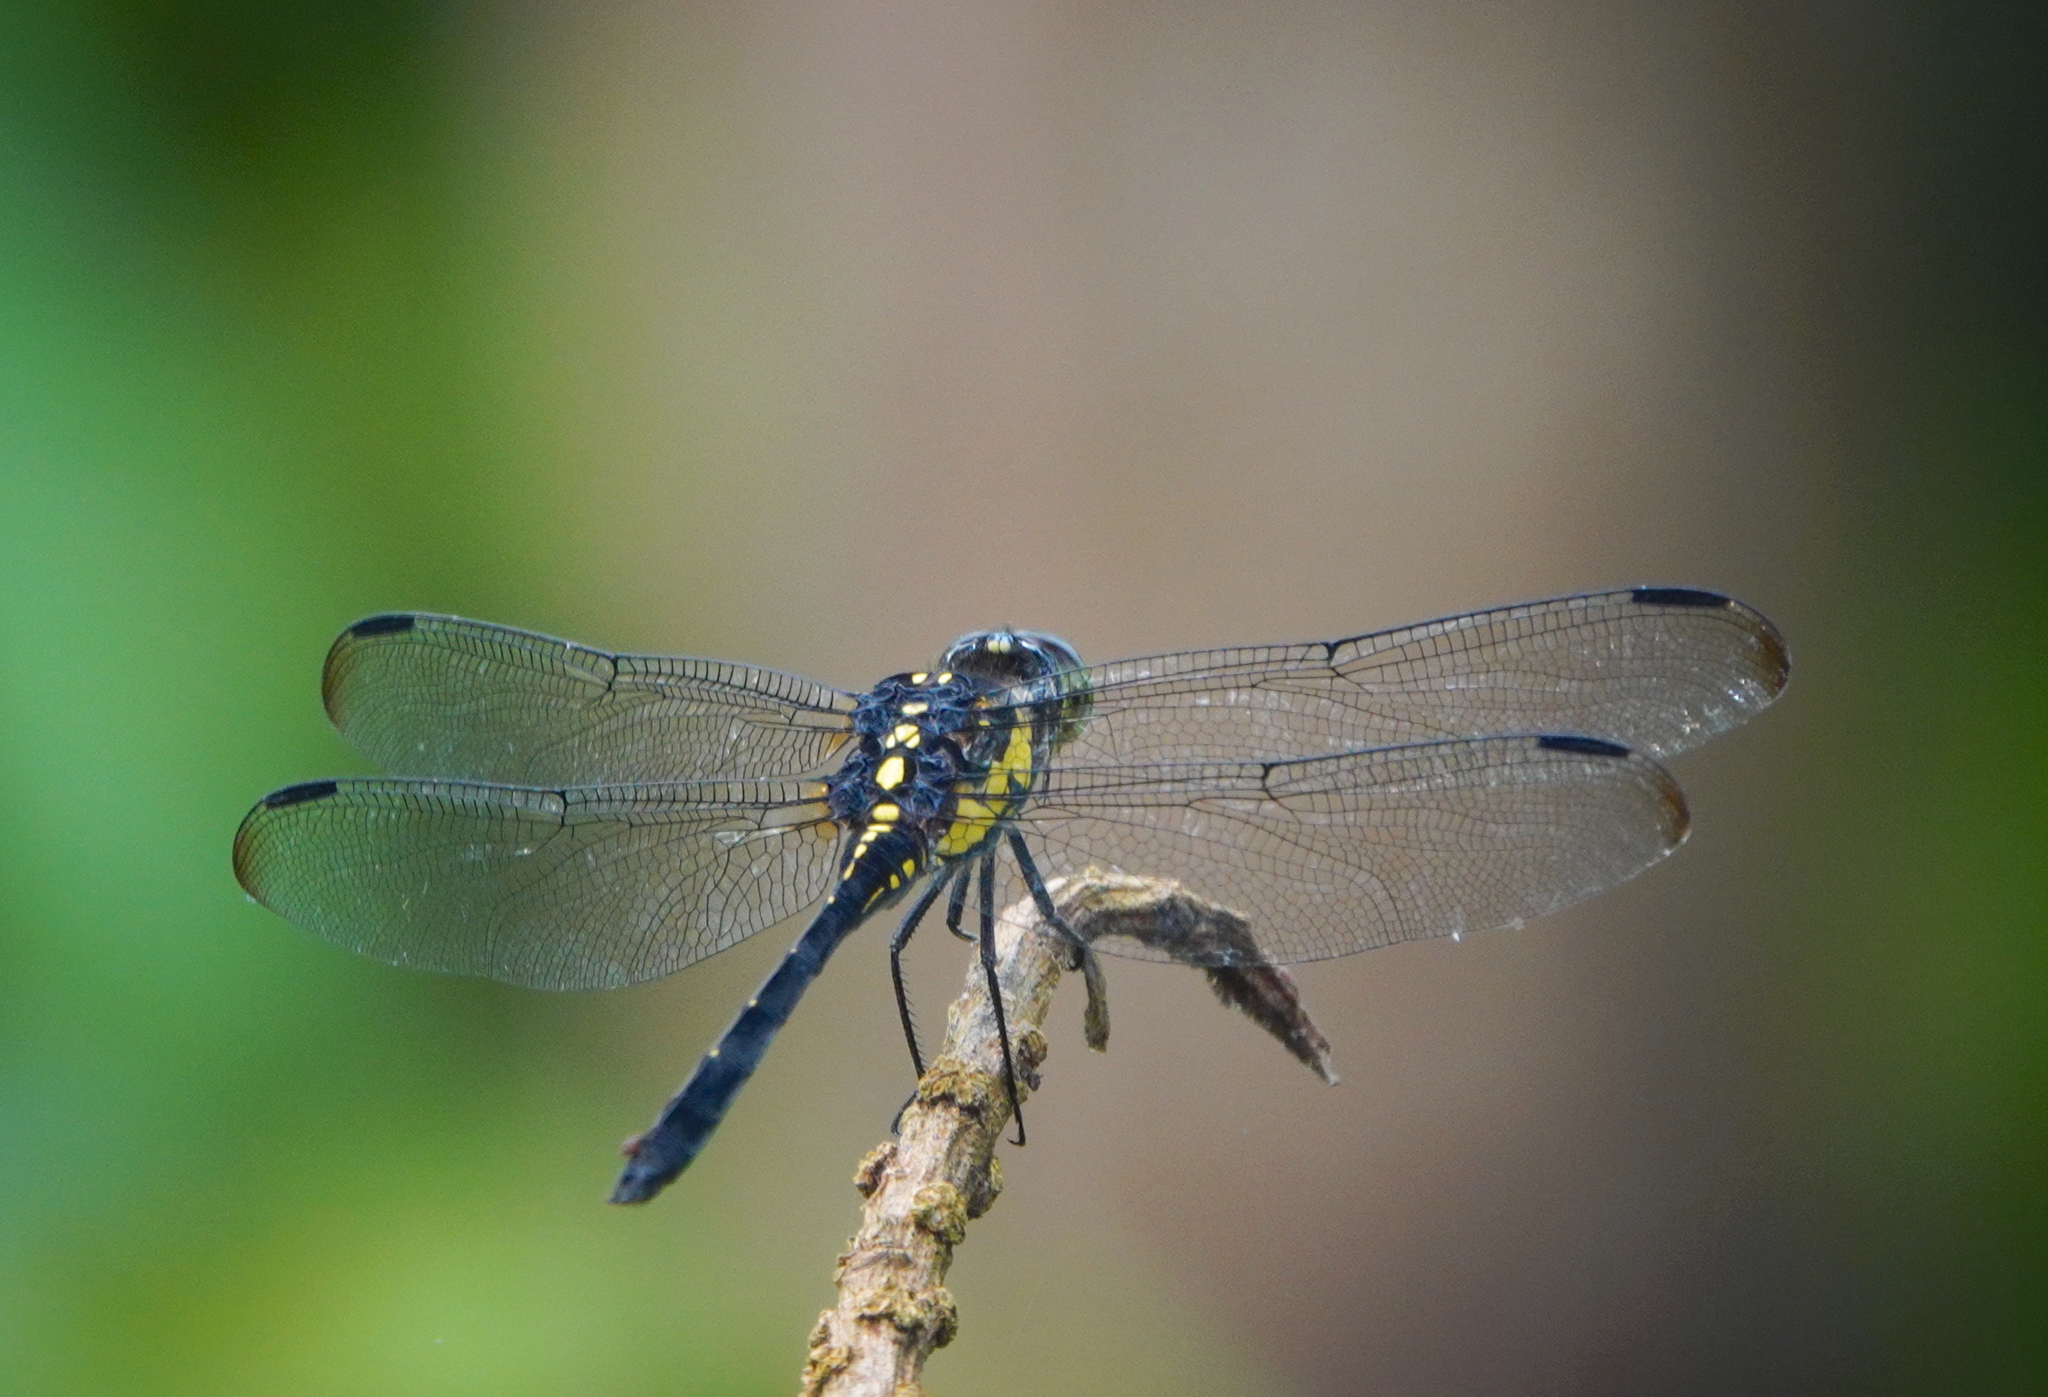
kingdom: Animalia
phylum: Arthropoda
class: Insecta
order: Odonata
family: Libellulidae
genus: Agrionoptera
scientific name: Agrionoptera longitudinalis
